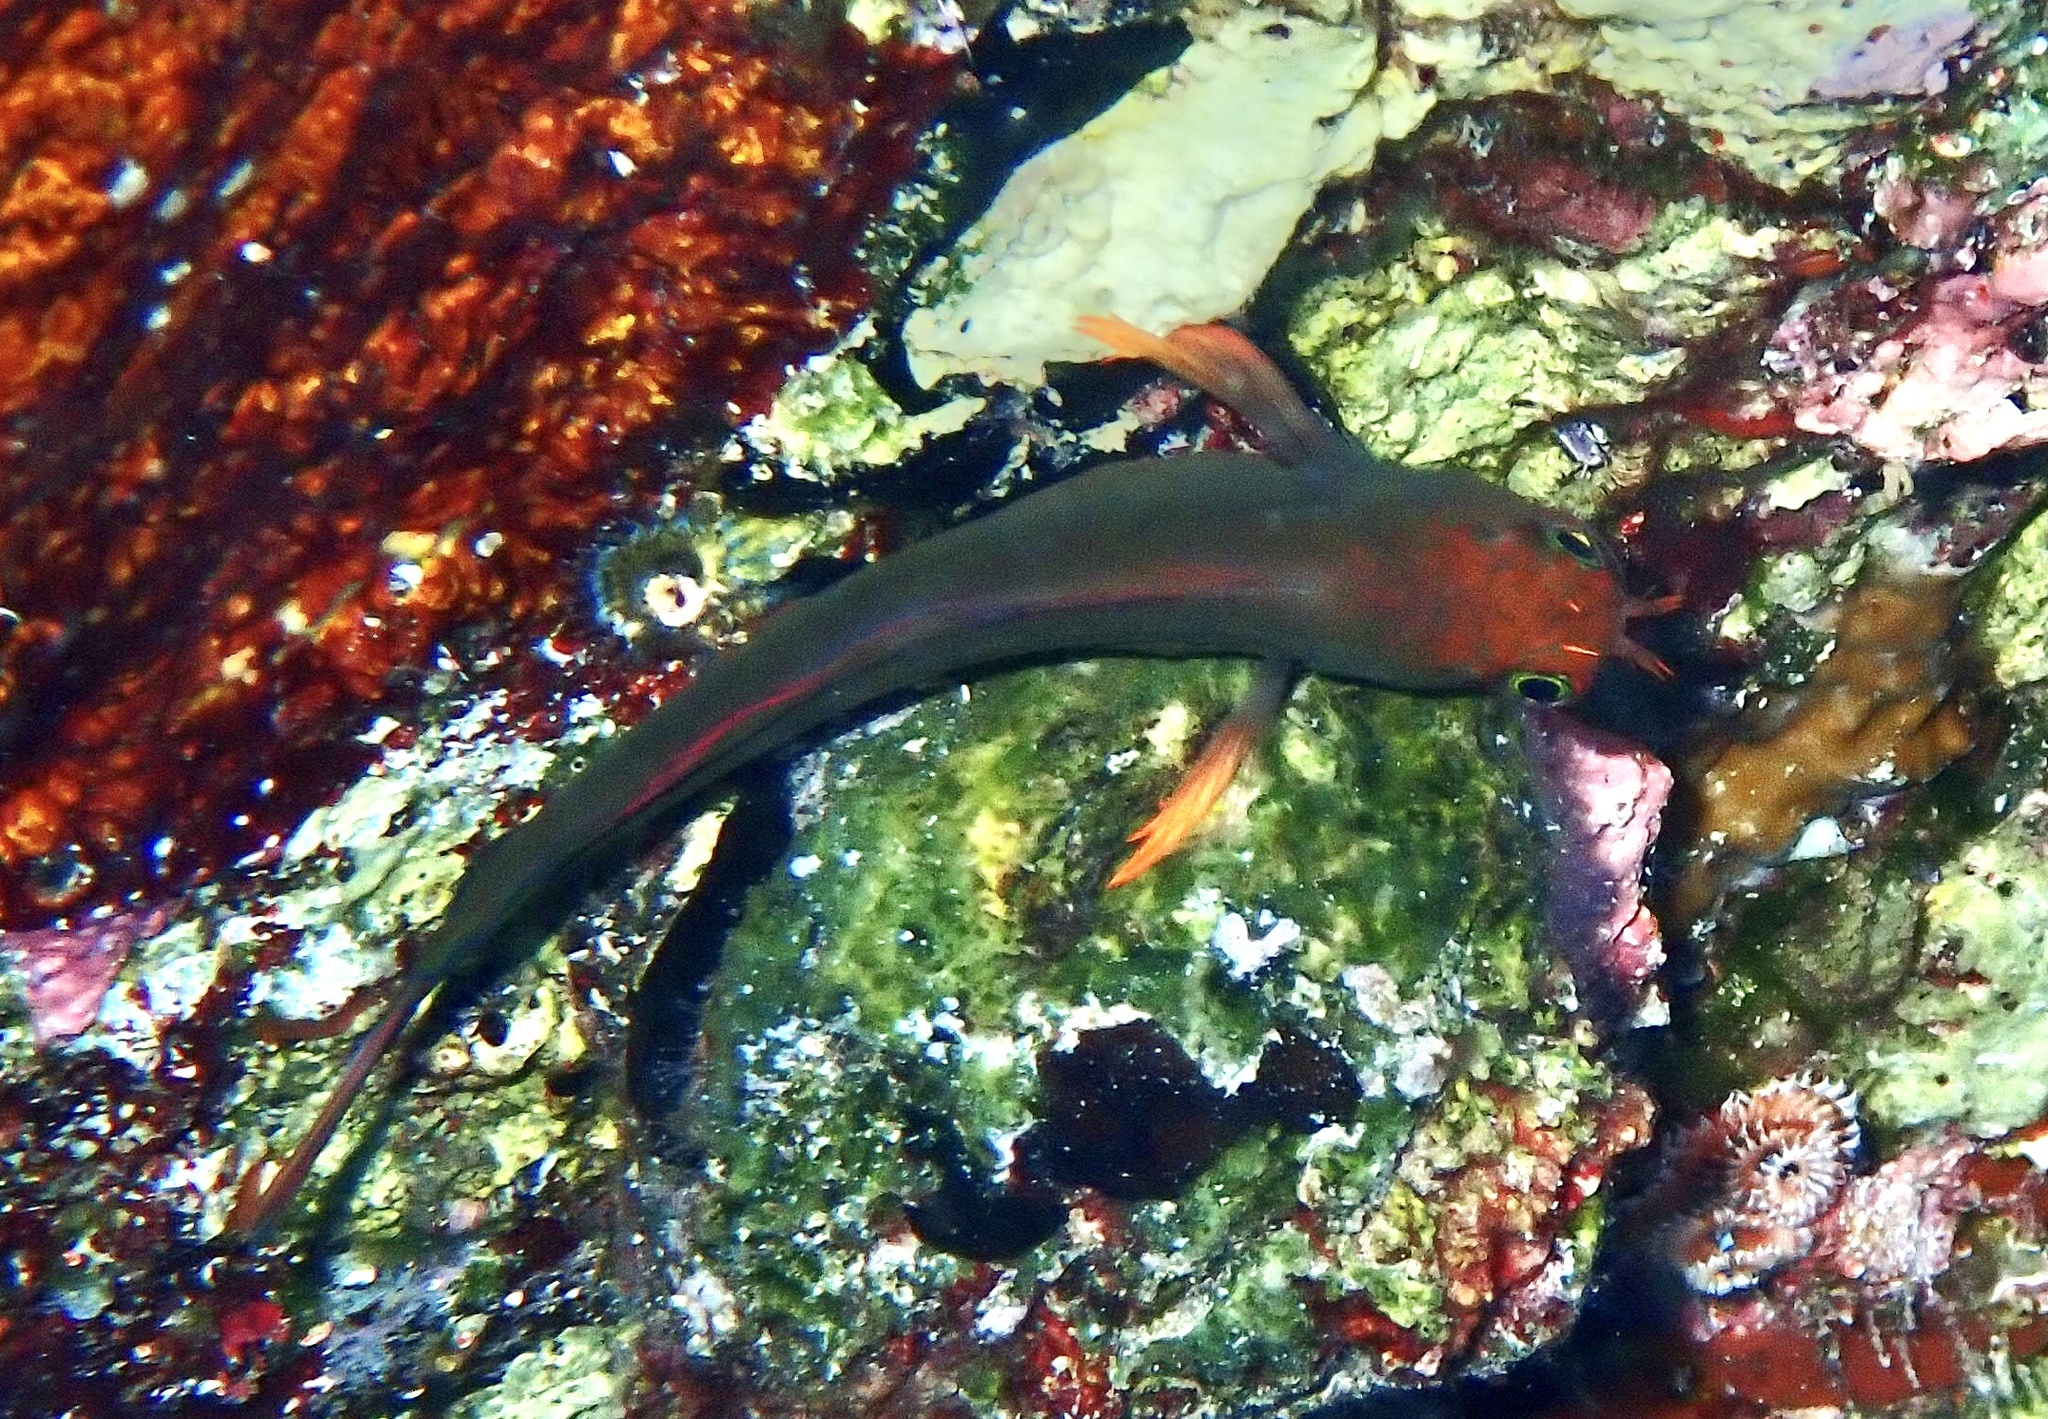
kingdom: Animalia
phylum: Chordata
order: Perciformes
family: Blenniidae
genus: Ophioblennius
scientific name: Ophioblennius macclurei
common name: Redlip blenny
